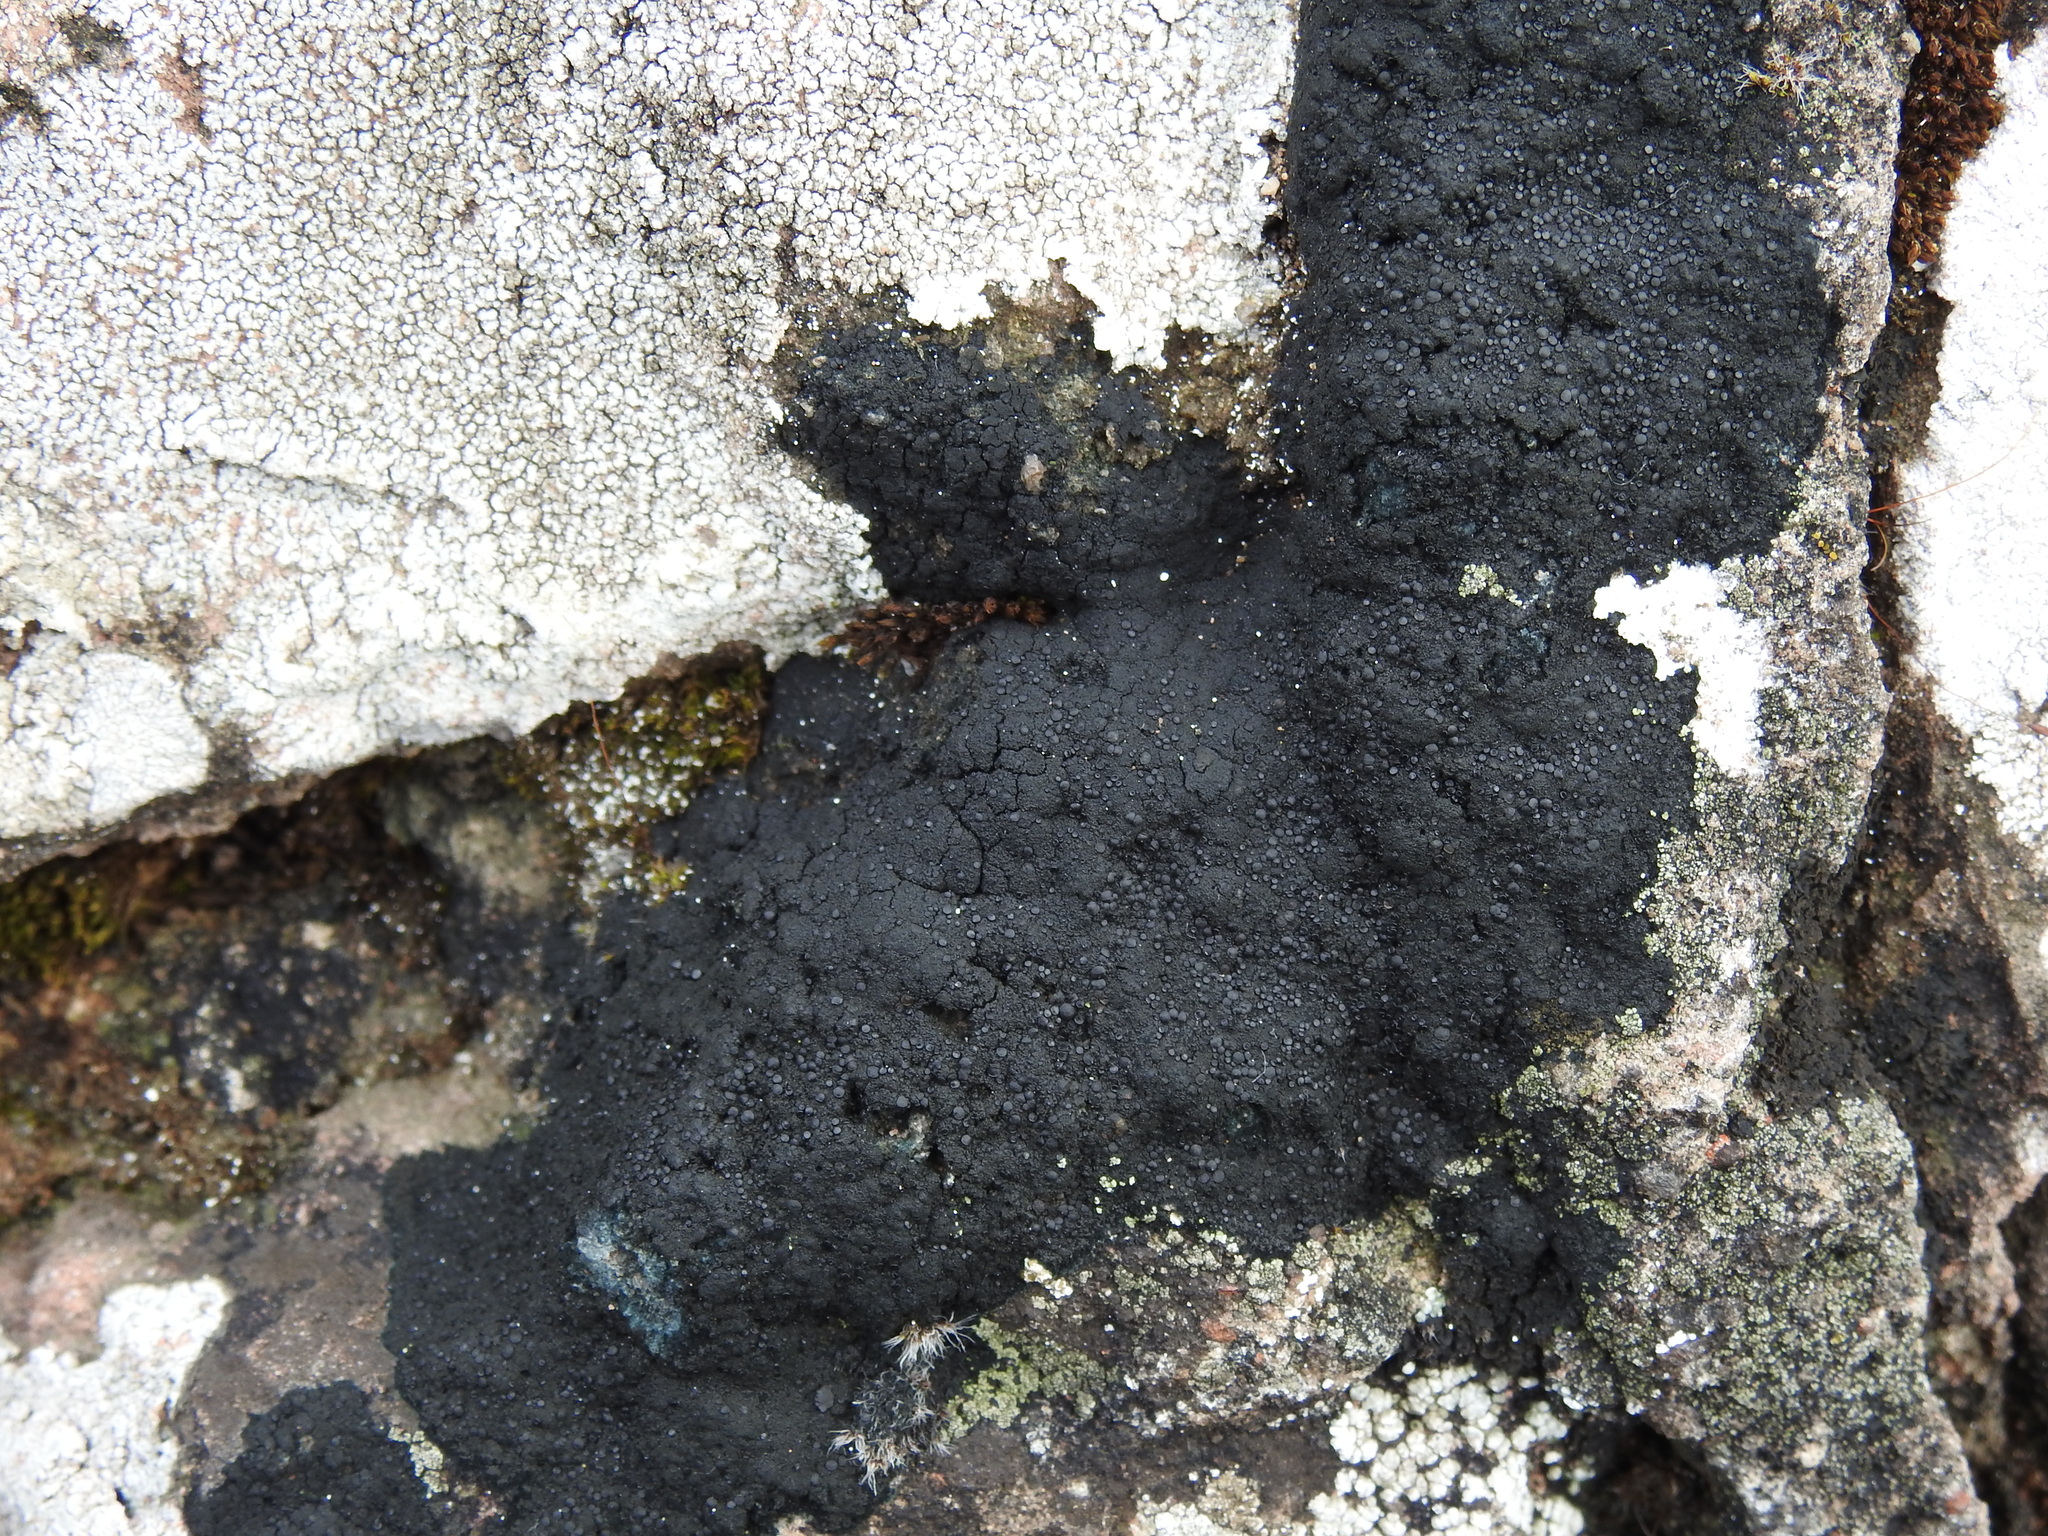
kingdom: Fungi
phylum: Ascomycota
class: Lecanoromycetes
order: Peltigerales
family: Placynthiaceae
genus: Placynthium
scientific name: Placynthium nigrum
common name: Blackthread lichen
